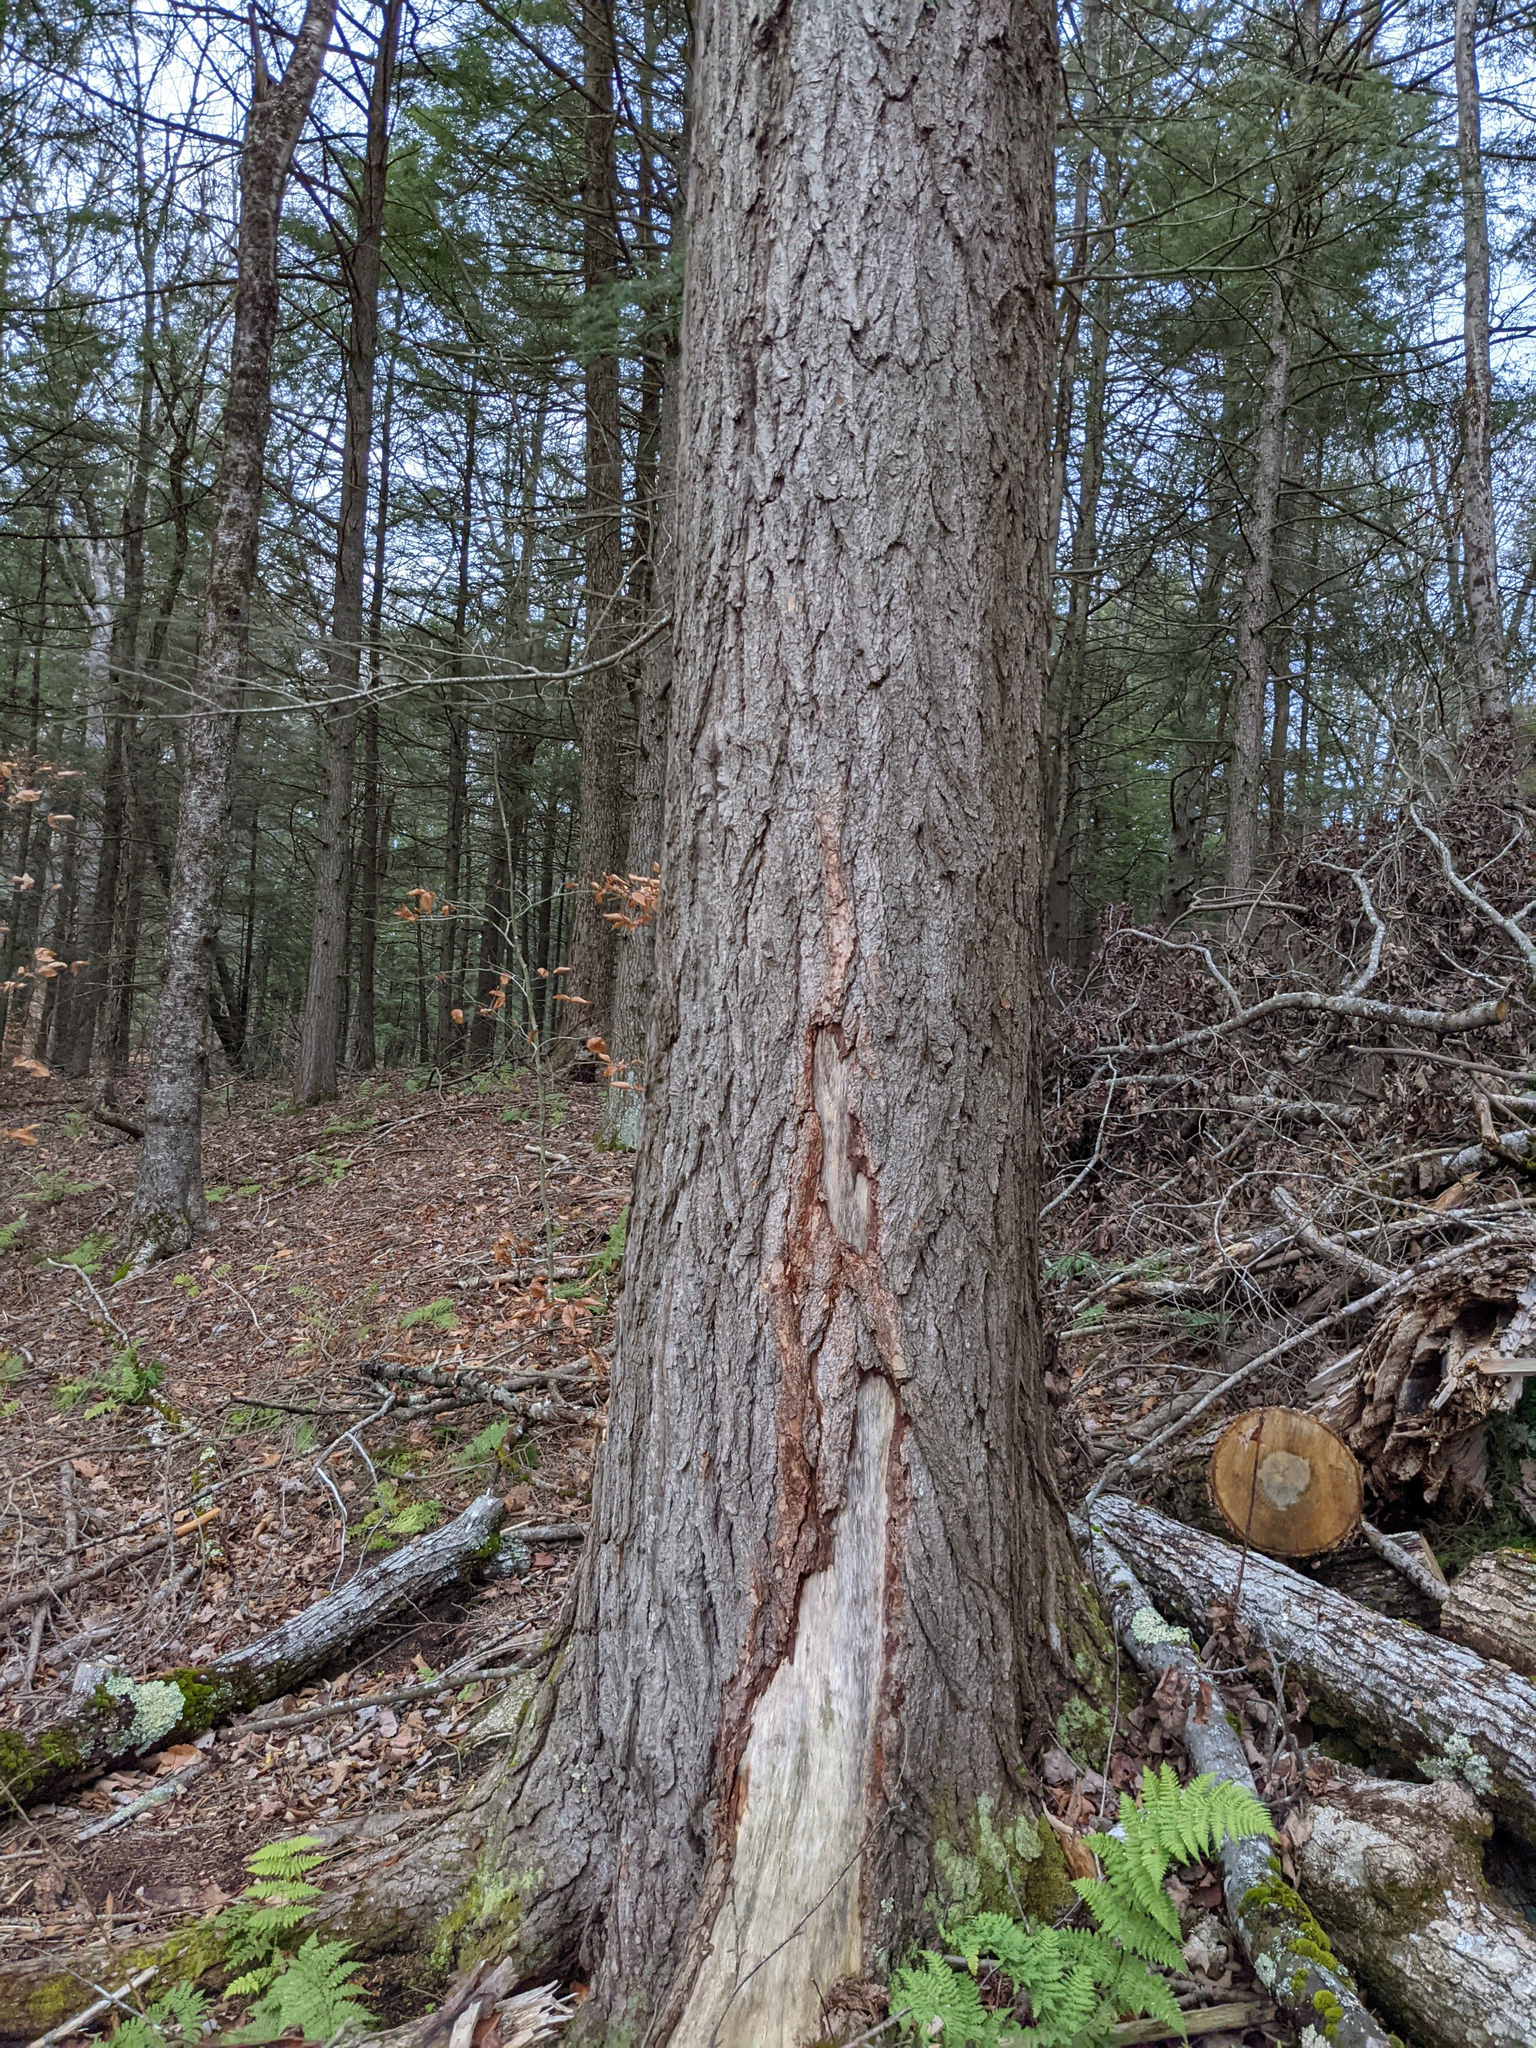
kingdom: Plantae
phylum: Tracheophyta
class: Pinopsida
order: Pinales
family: Pinaceae
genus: Tsuga
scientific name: Tsuga canadensis
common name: Eastern hemlock
